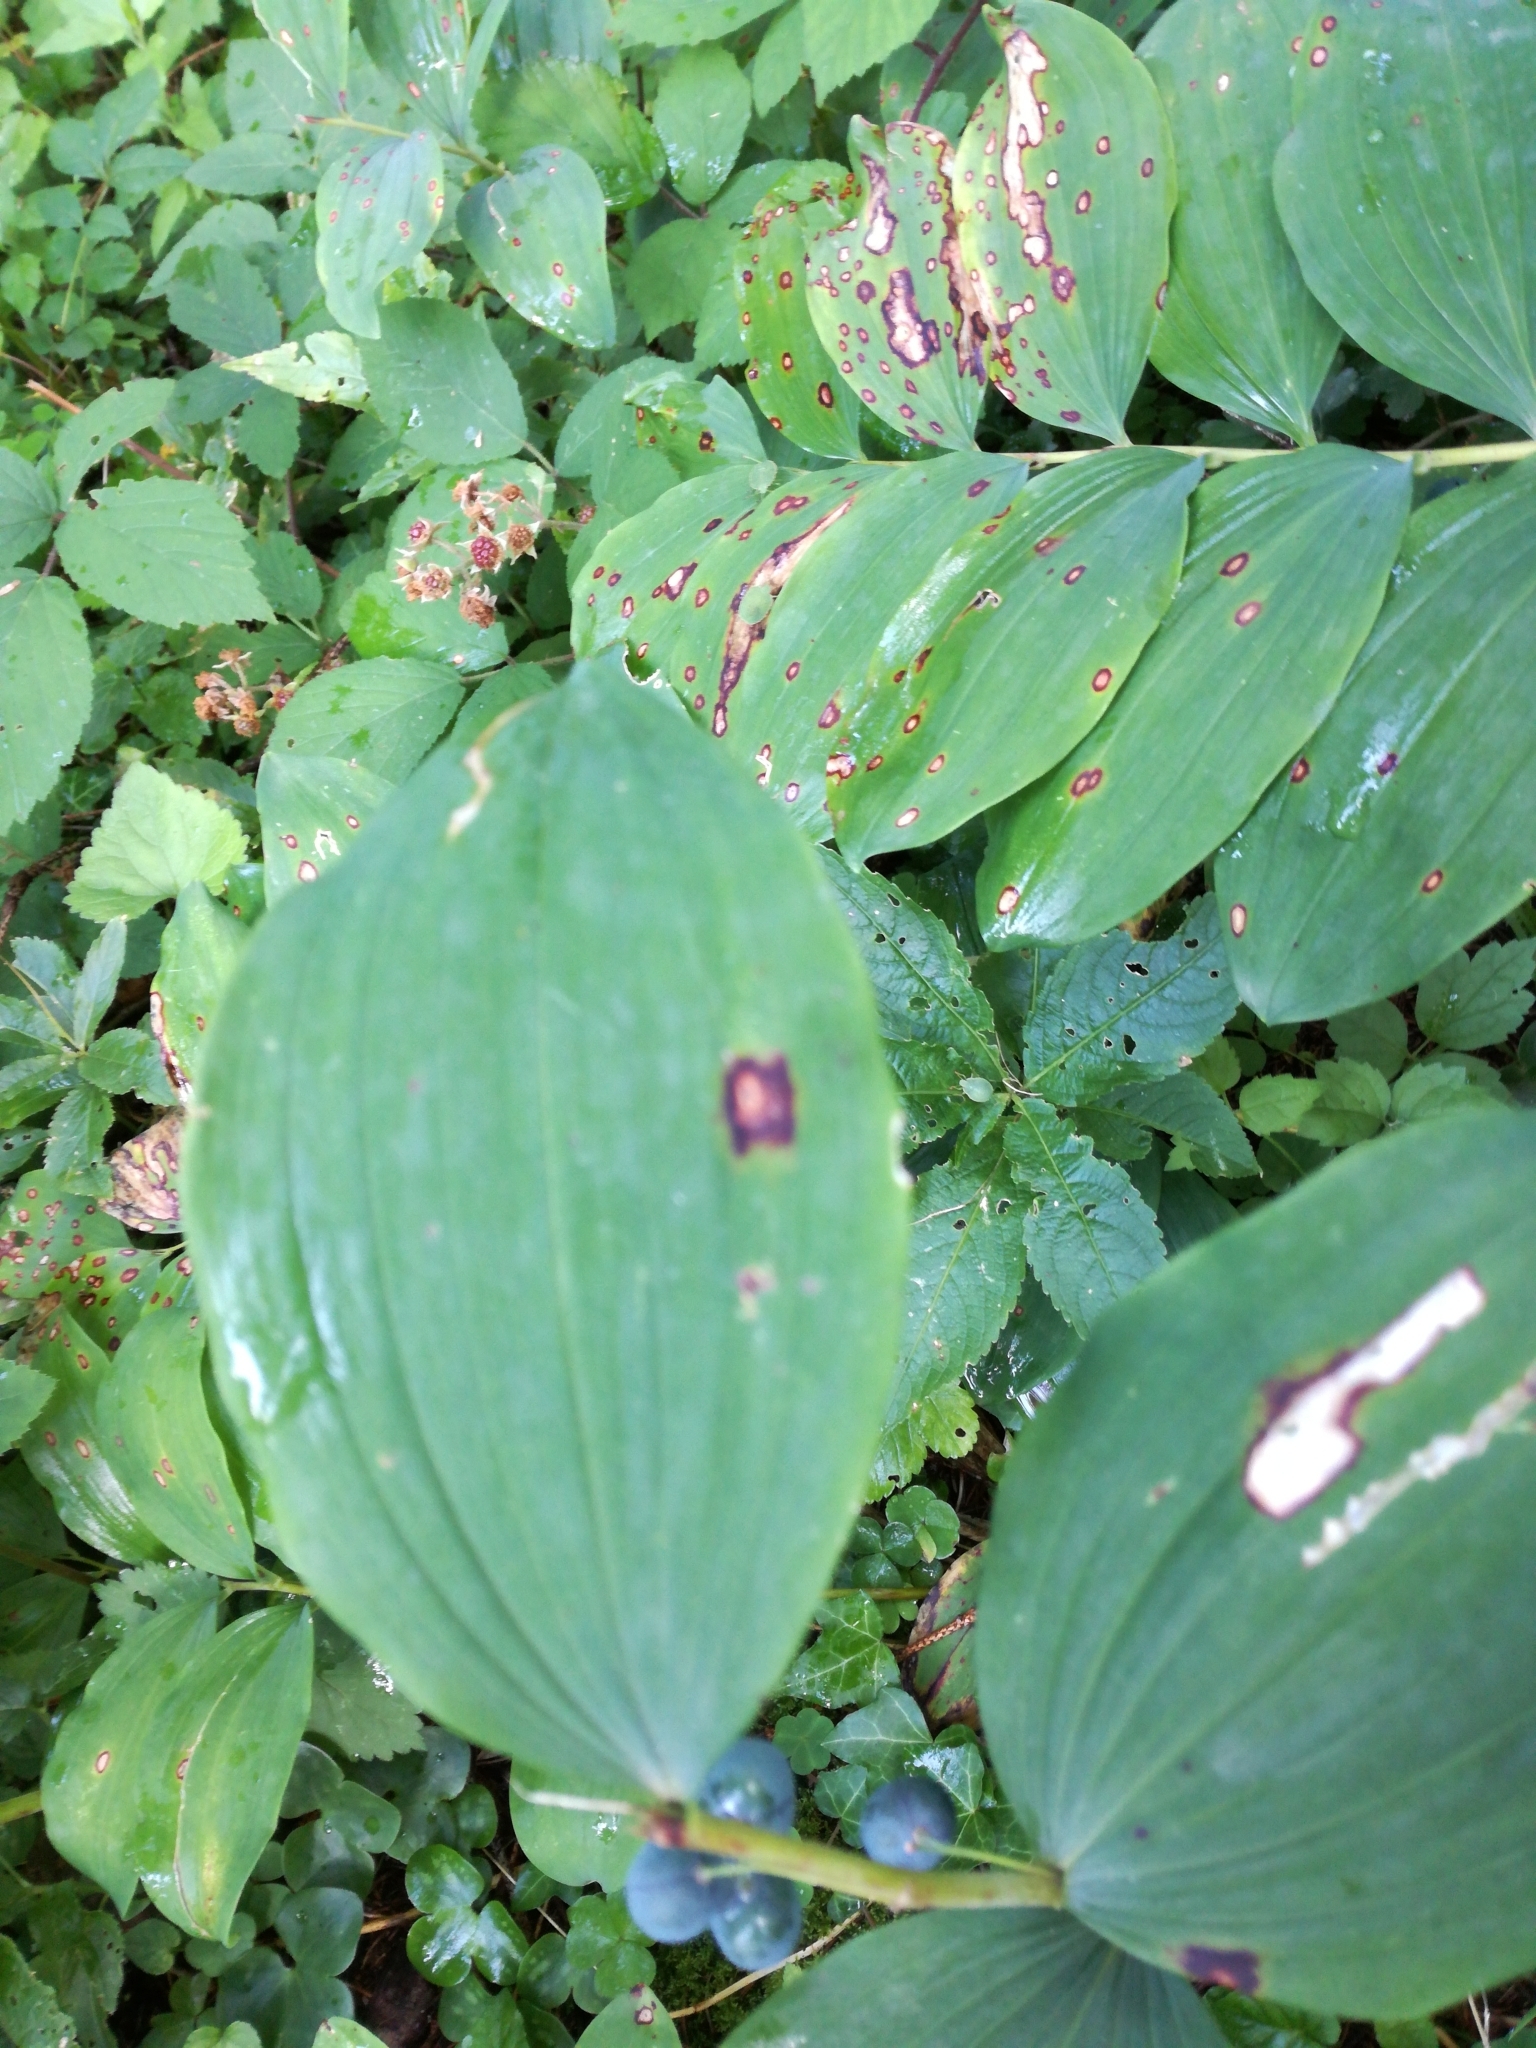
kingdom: Plantae
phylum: Tracheophyta
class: Liliopsida
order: Asparagales
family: Asparagaceae
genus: Polygonatum
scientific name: Polygonatum multiflorum
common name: Solomon's-seal
